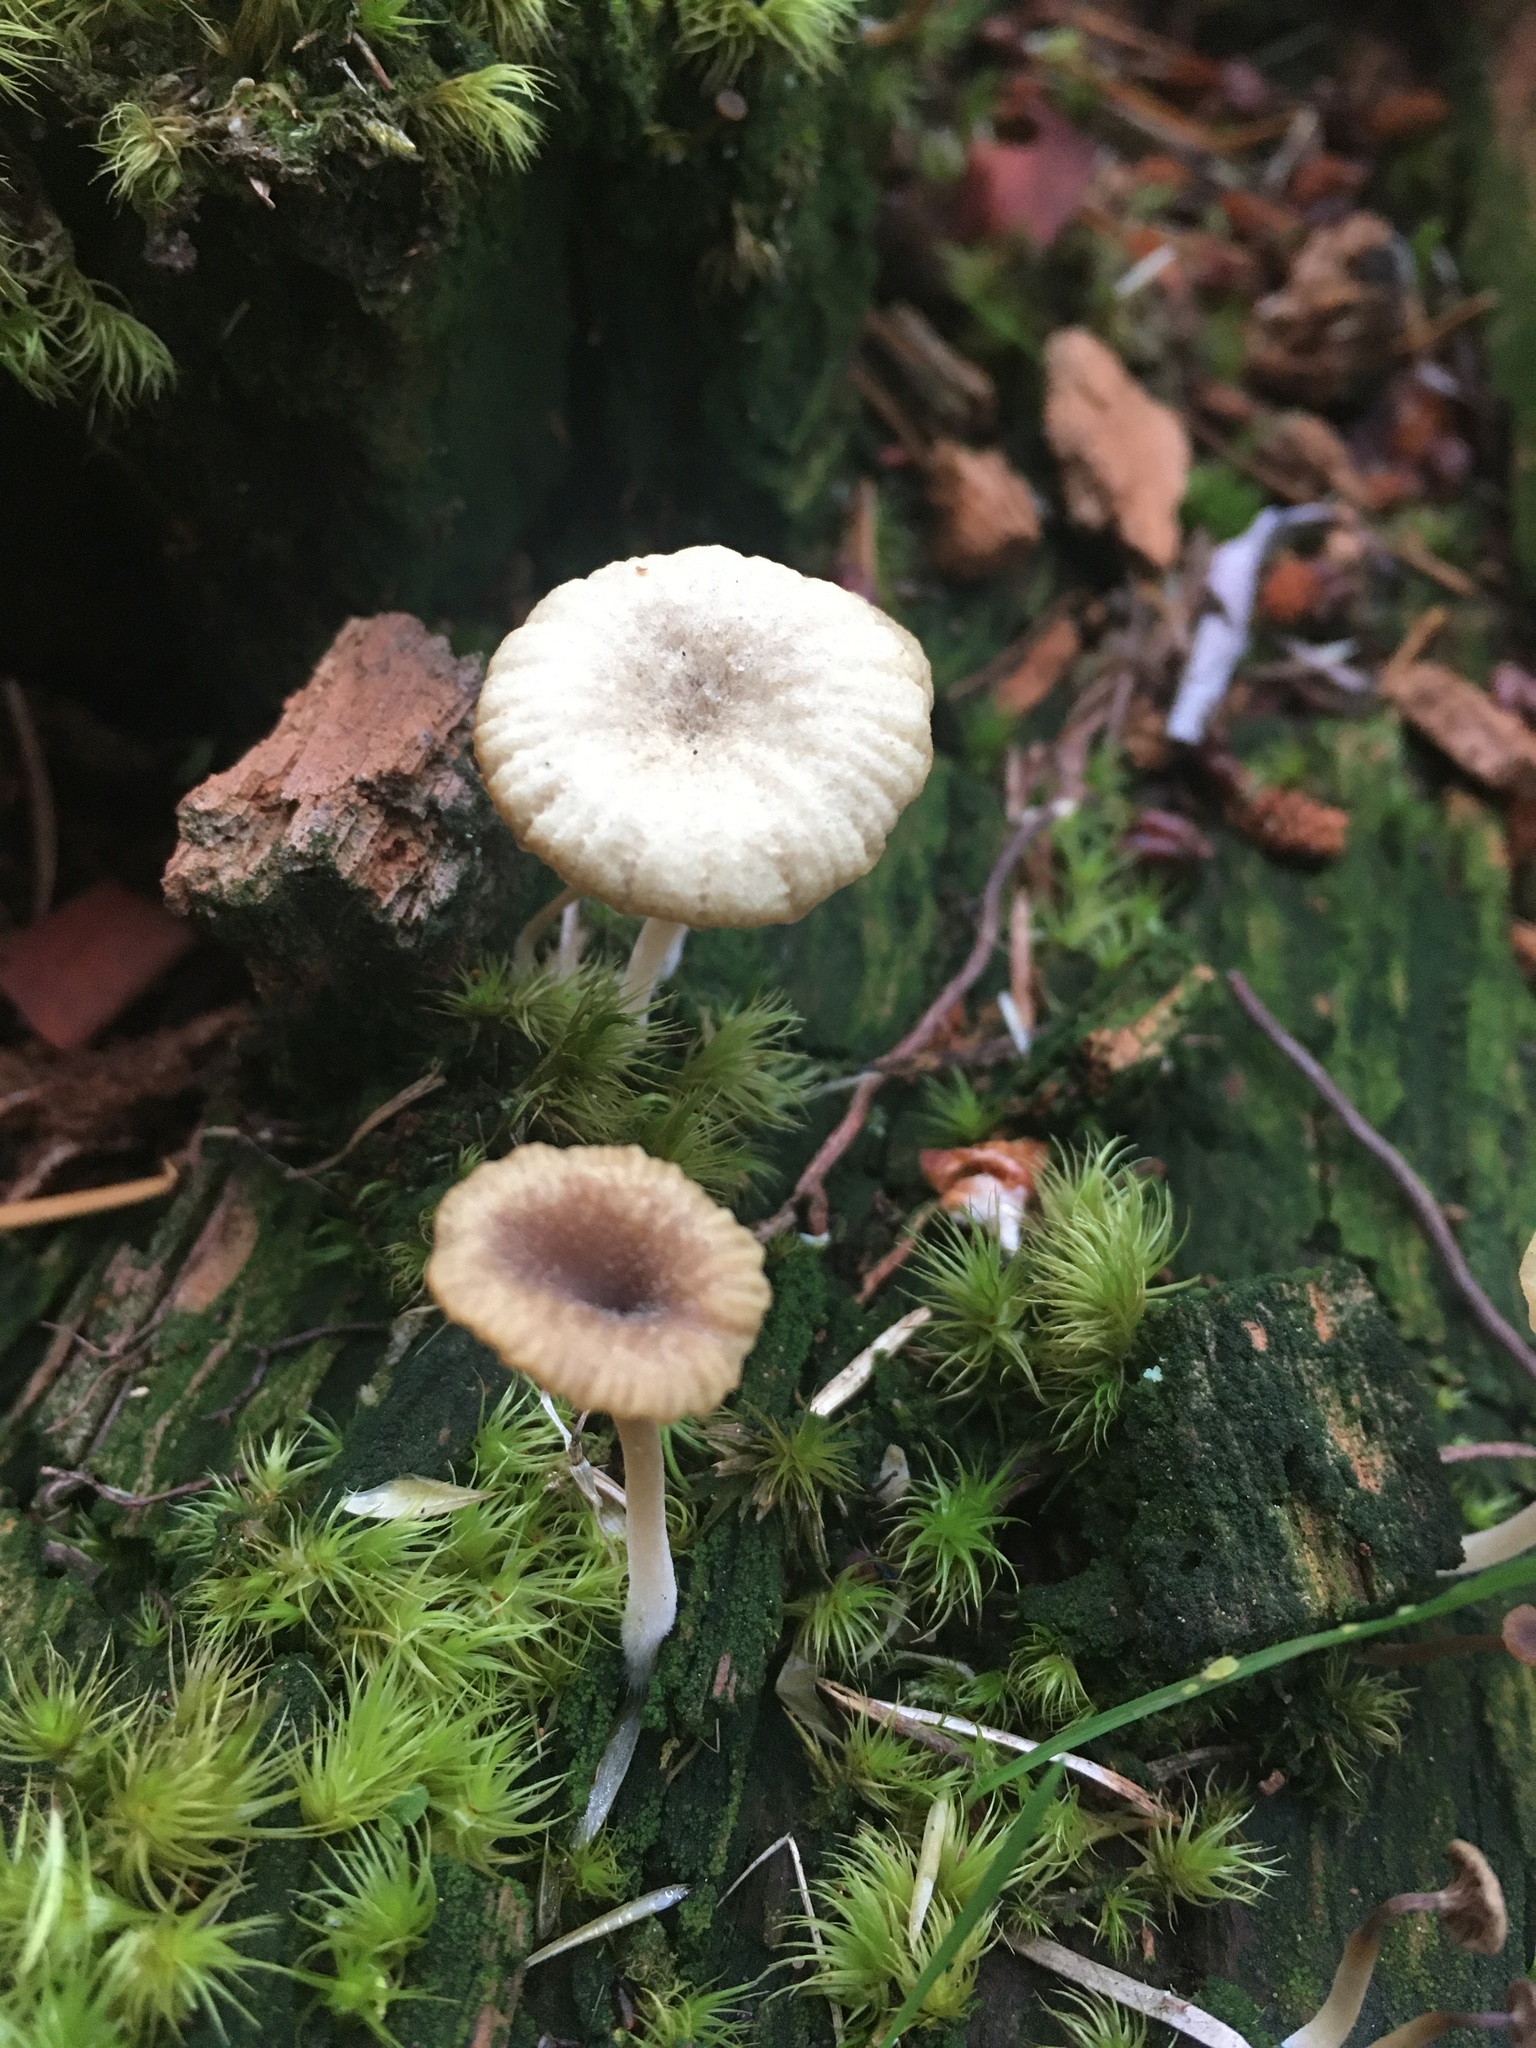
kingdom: Fungi
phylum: Basidiomycota
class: Agaricomycetes
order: Agaricales
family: Hygrophoraceae
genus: Lichenomphalia
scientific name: Lichenomphalia
